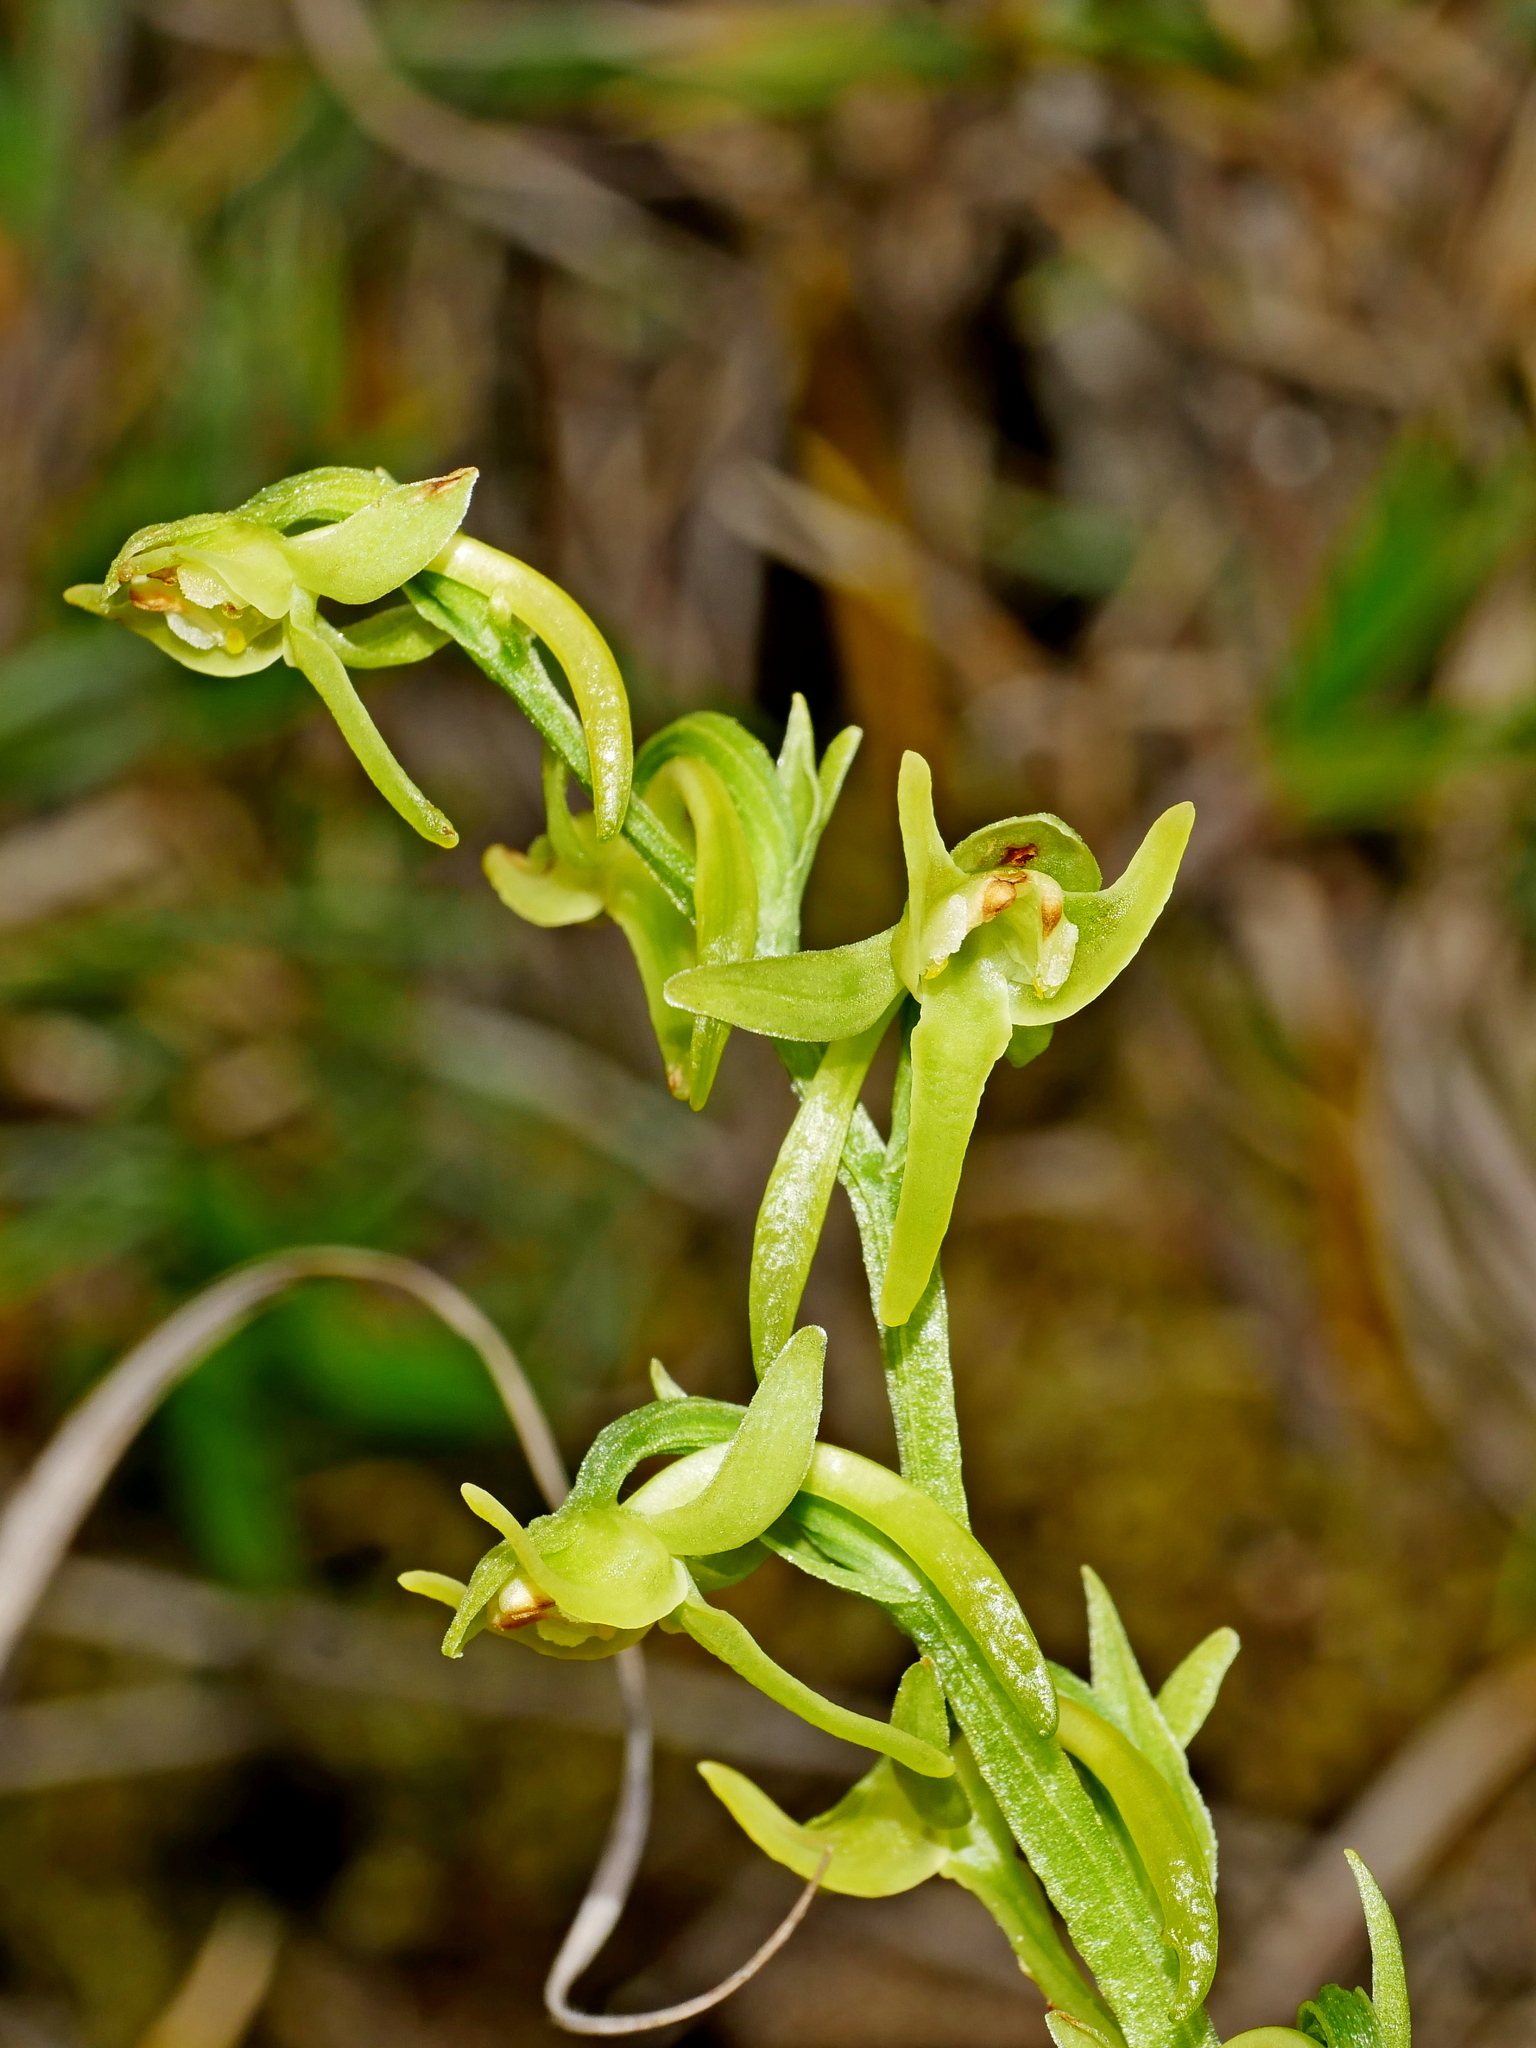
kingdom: Plantae
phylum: Tracheophyta
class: Liliopsida
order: Asparagales
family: Orchidaceae
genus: Platanthera
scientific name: Platanthera pachyglossa
